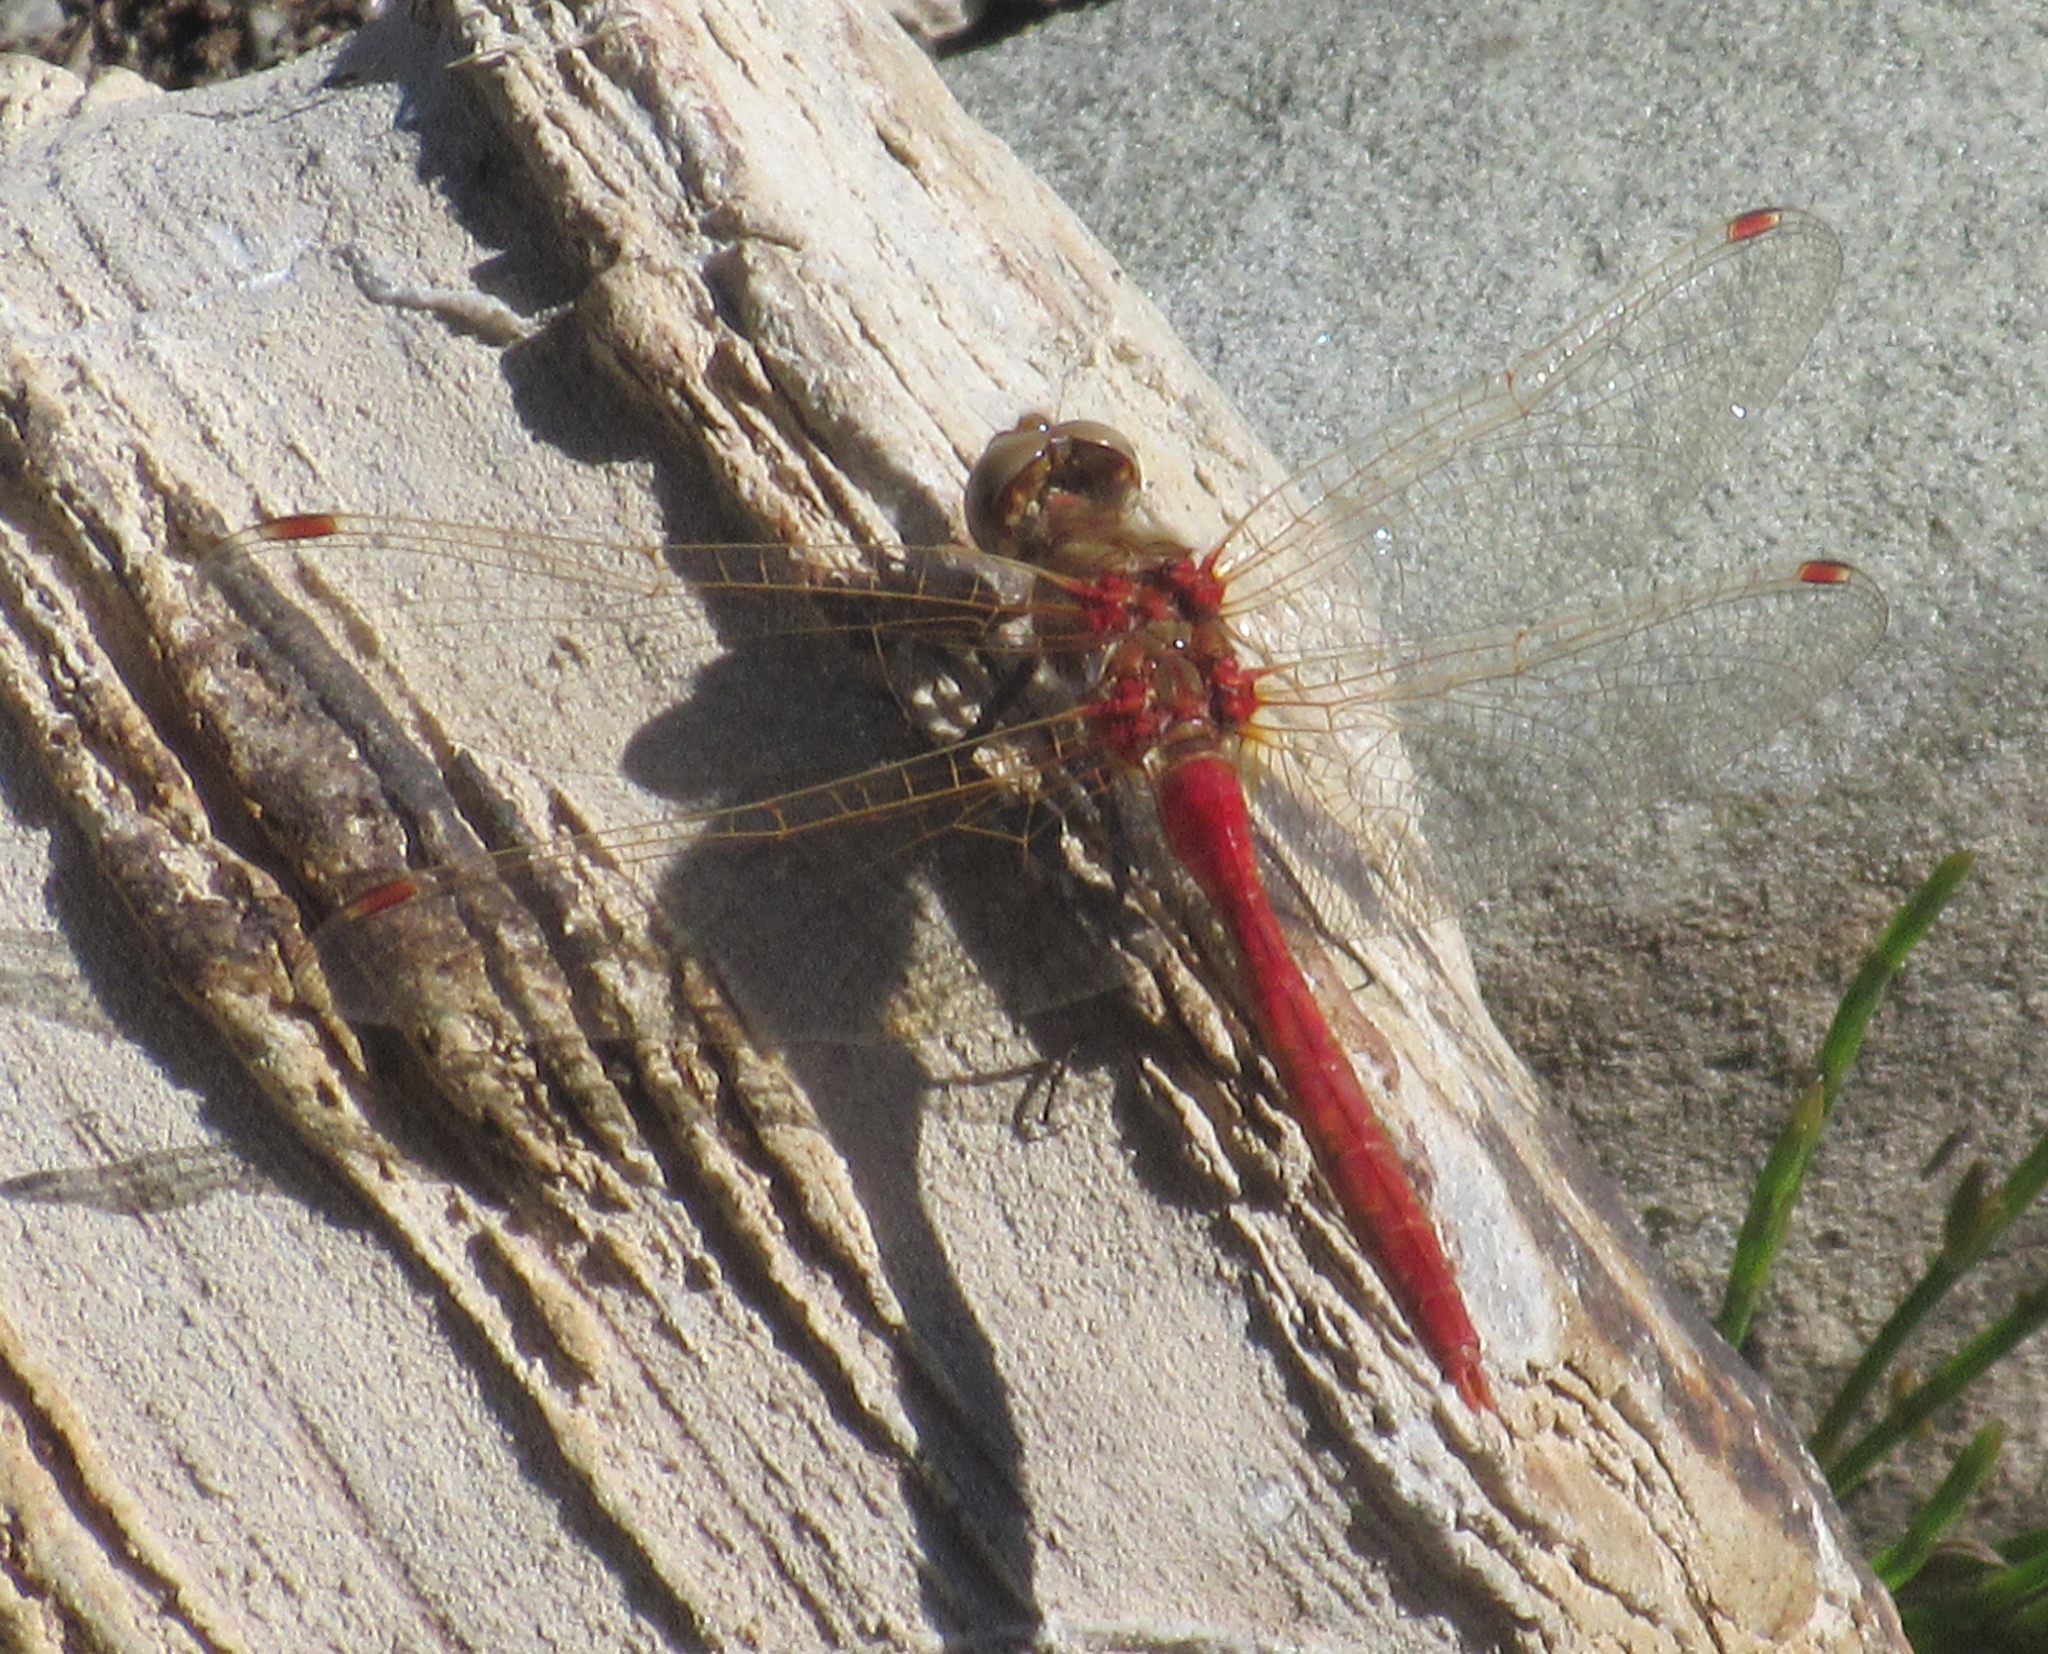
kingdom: Animalia
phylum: Arthropoda
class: Insecta
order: Odonata
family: Libellulidae
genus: Sympetrum
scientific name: Sympetrum pallipes
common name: Striped meadowhawk
